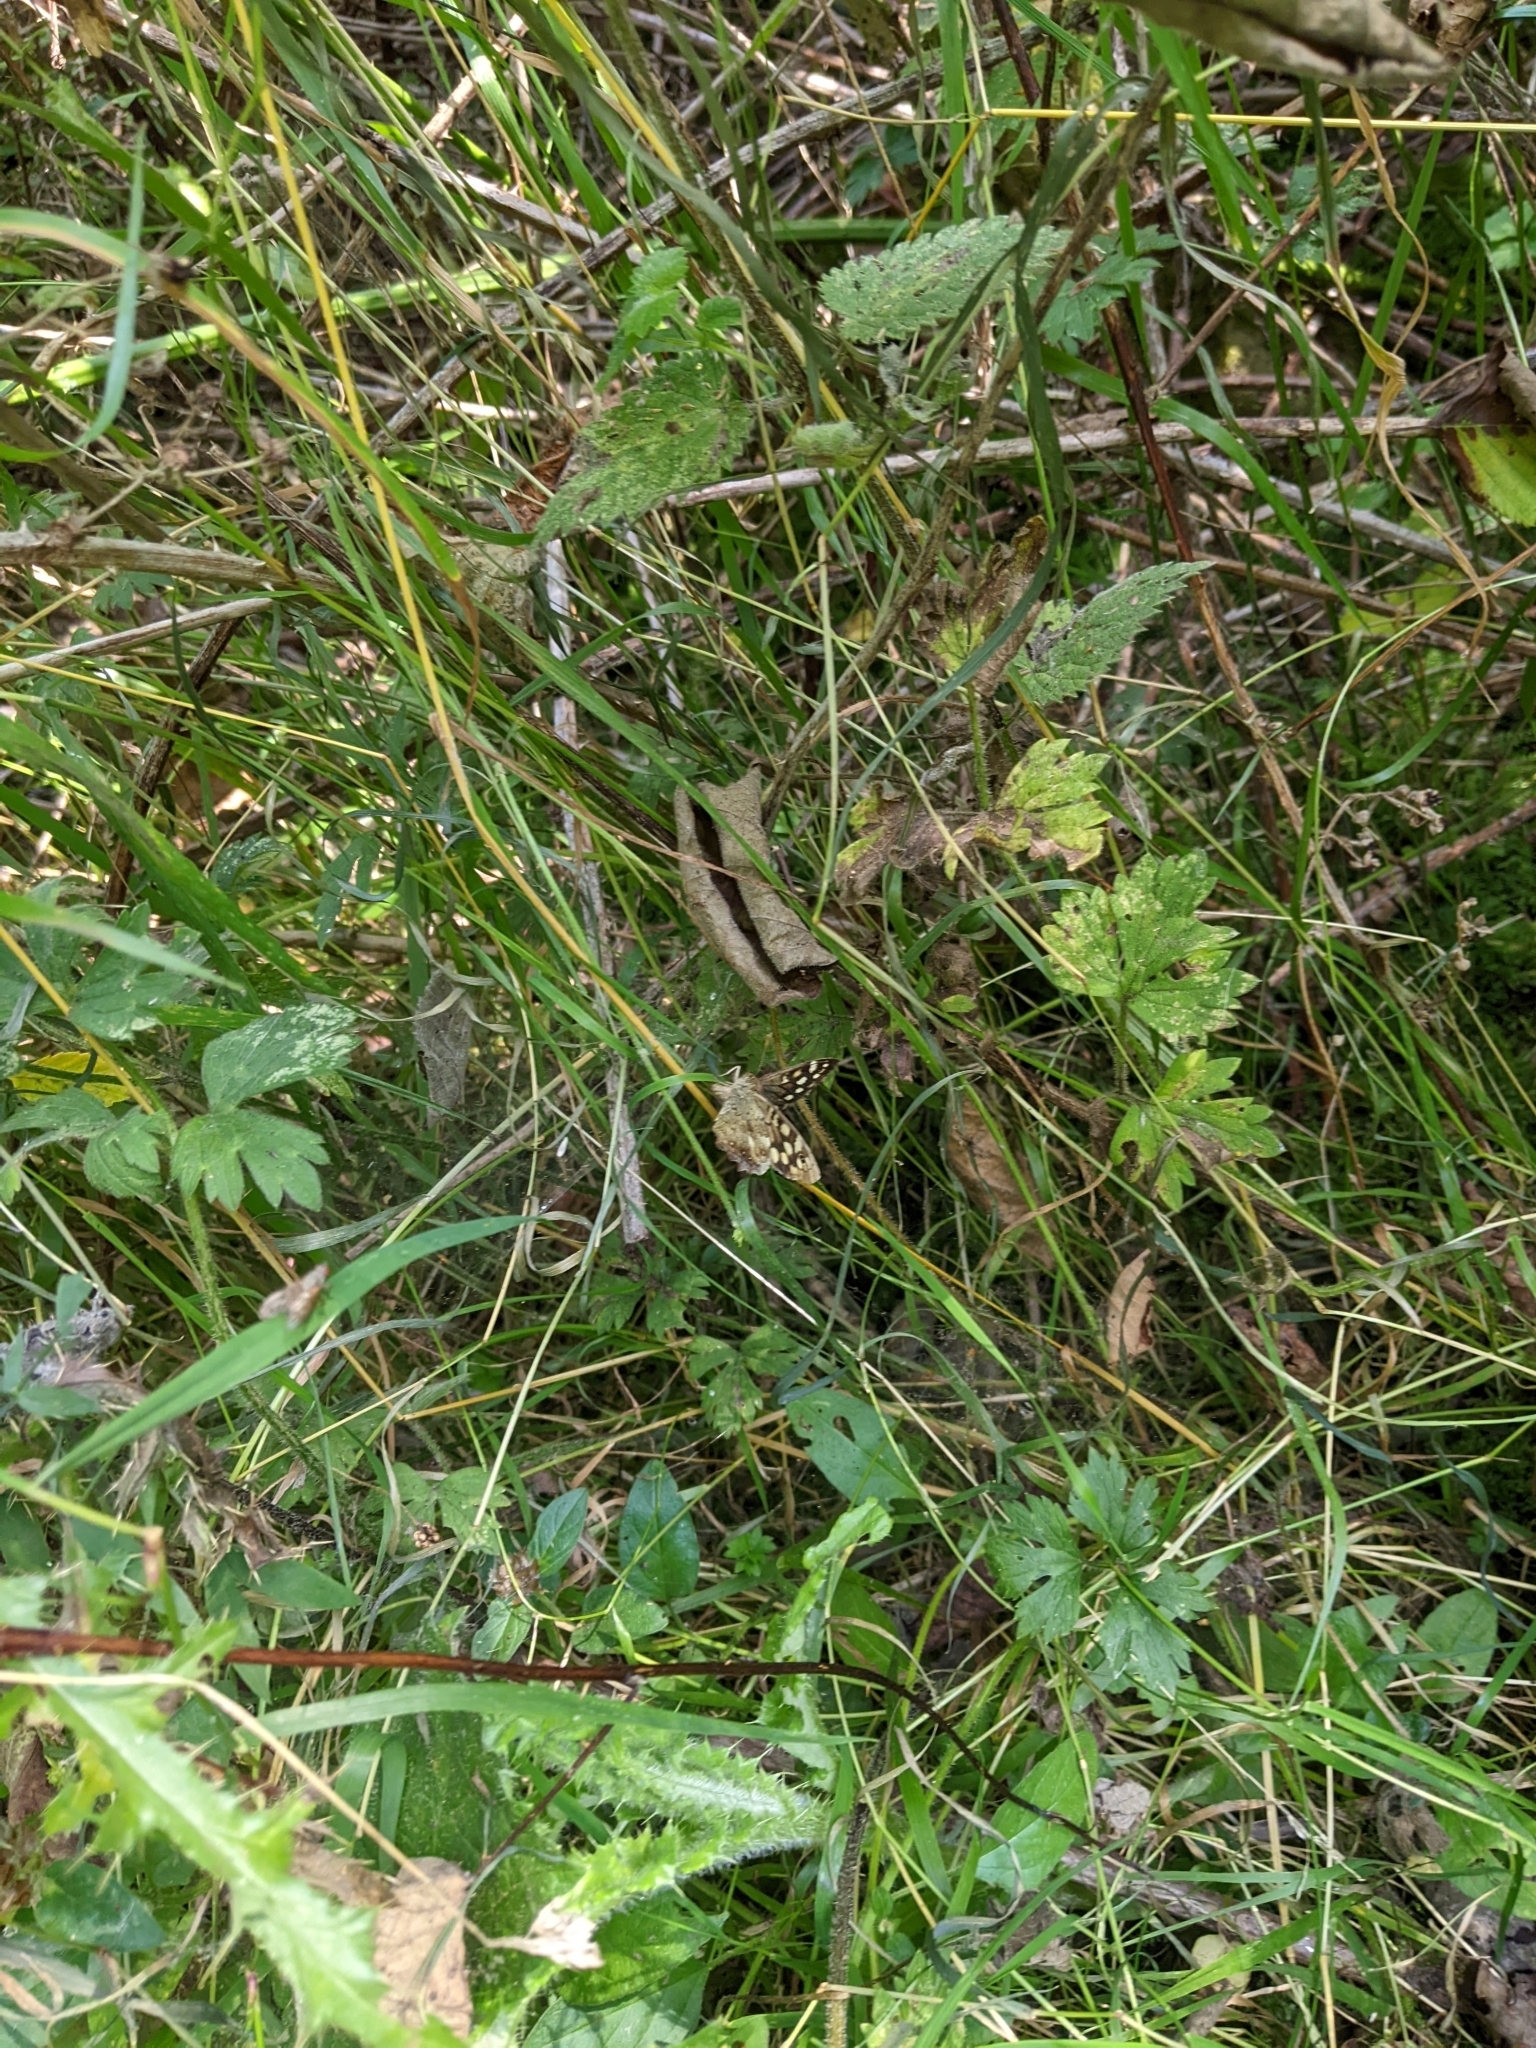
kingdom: Animalia
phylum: Arthropoda
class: Insecta
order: Lepidoptera
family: Nymphalidae
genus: Pararge
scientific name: Pararge aegeria
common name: Speckled wood
